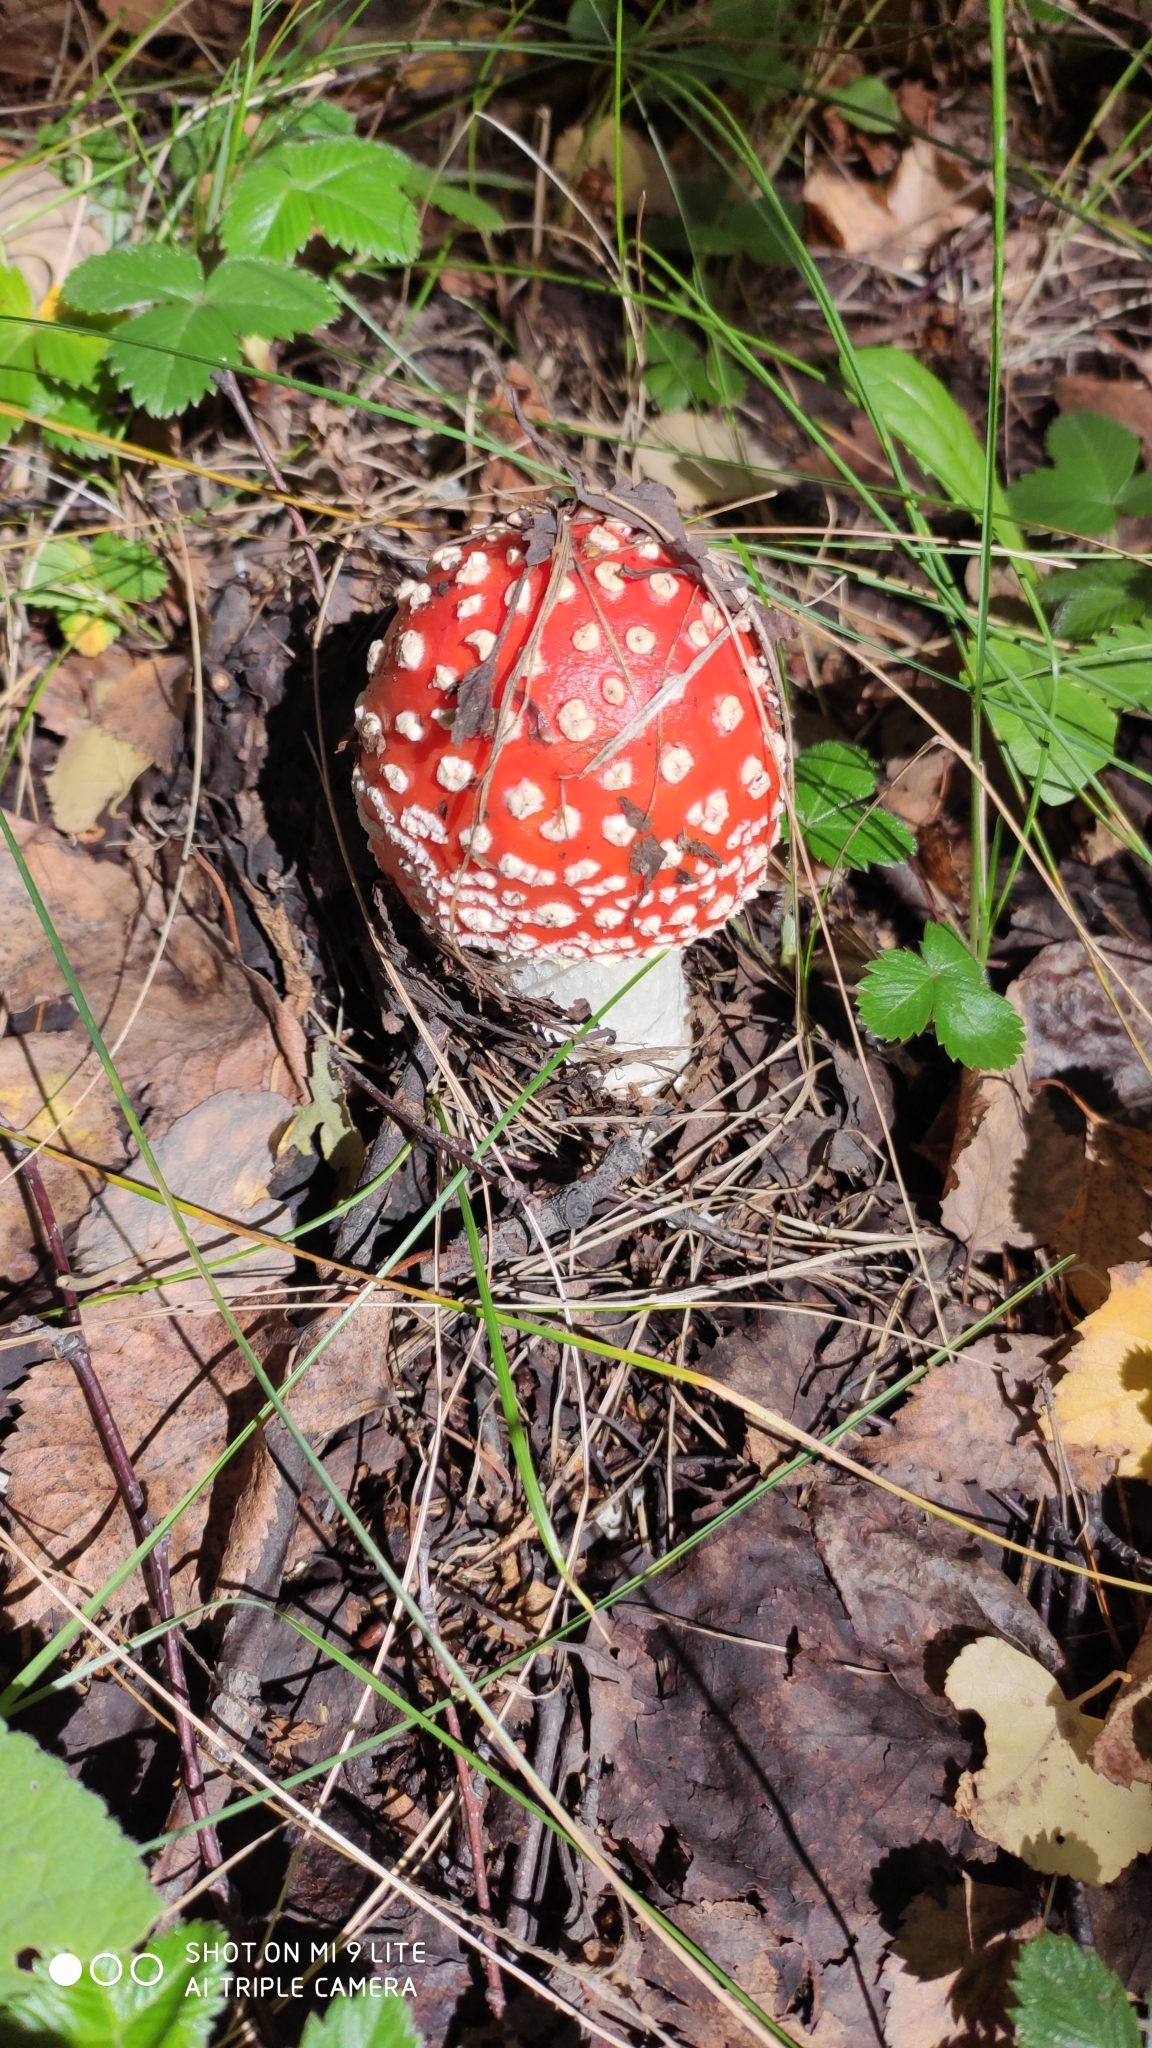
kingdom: Fungi
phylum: Basidiomycota
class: Agaricomycetes
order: Agaricales
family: Amanitaceae
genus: Amanita
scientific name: Amanita muscaria
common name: Fly agaric
